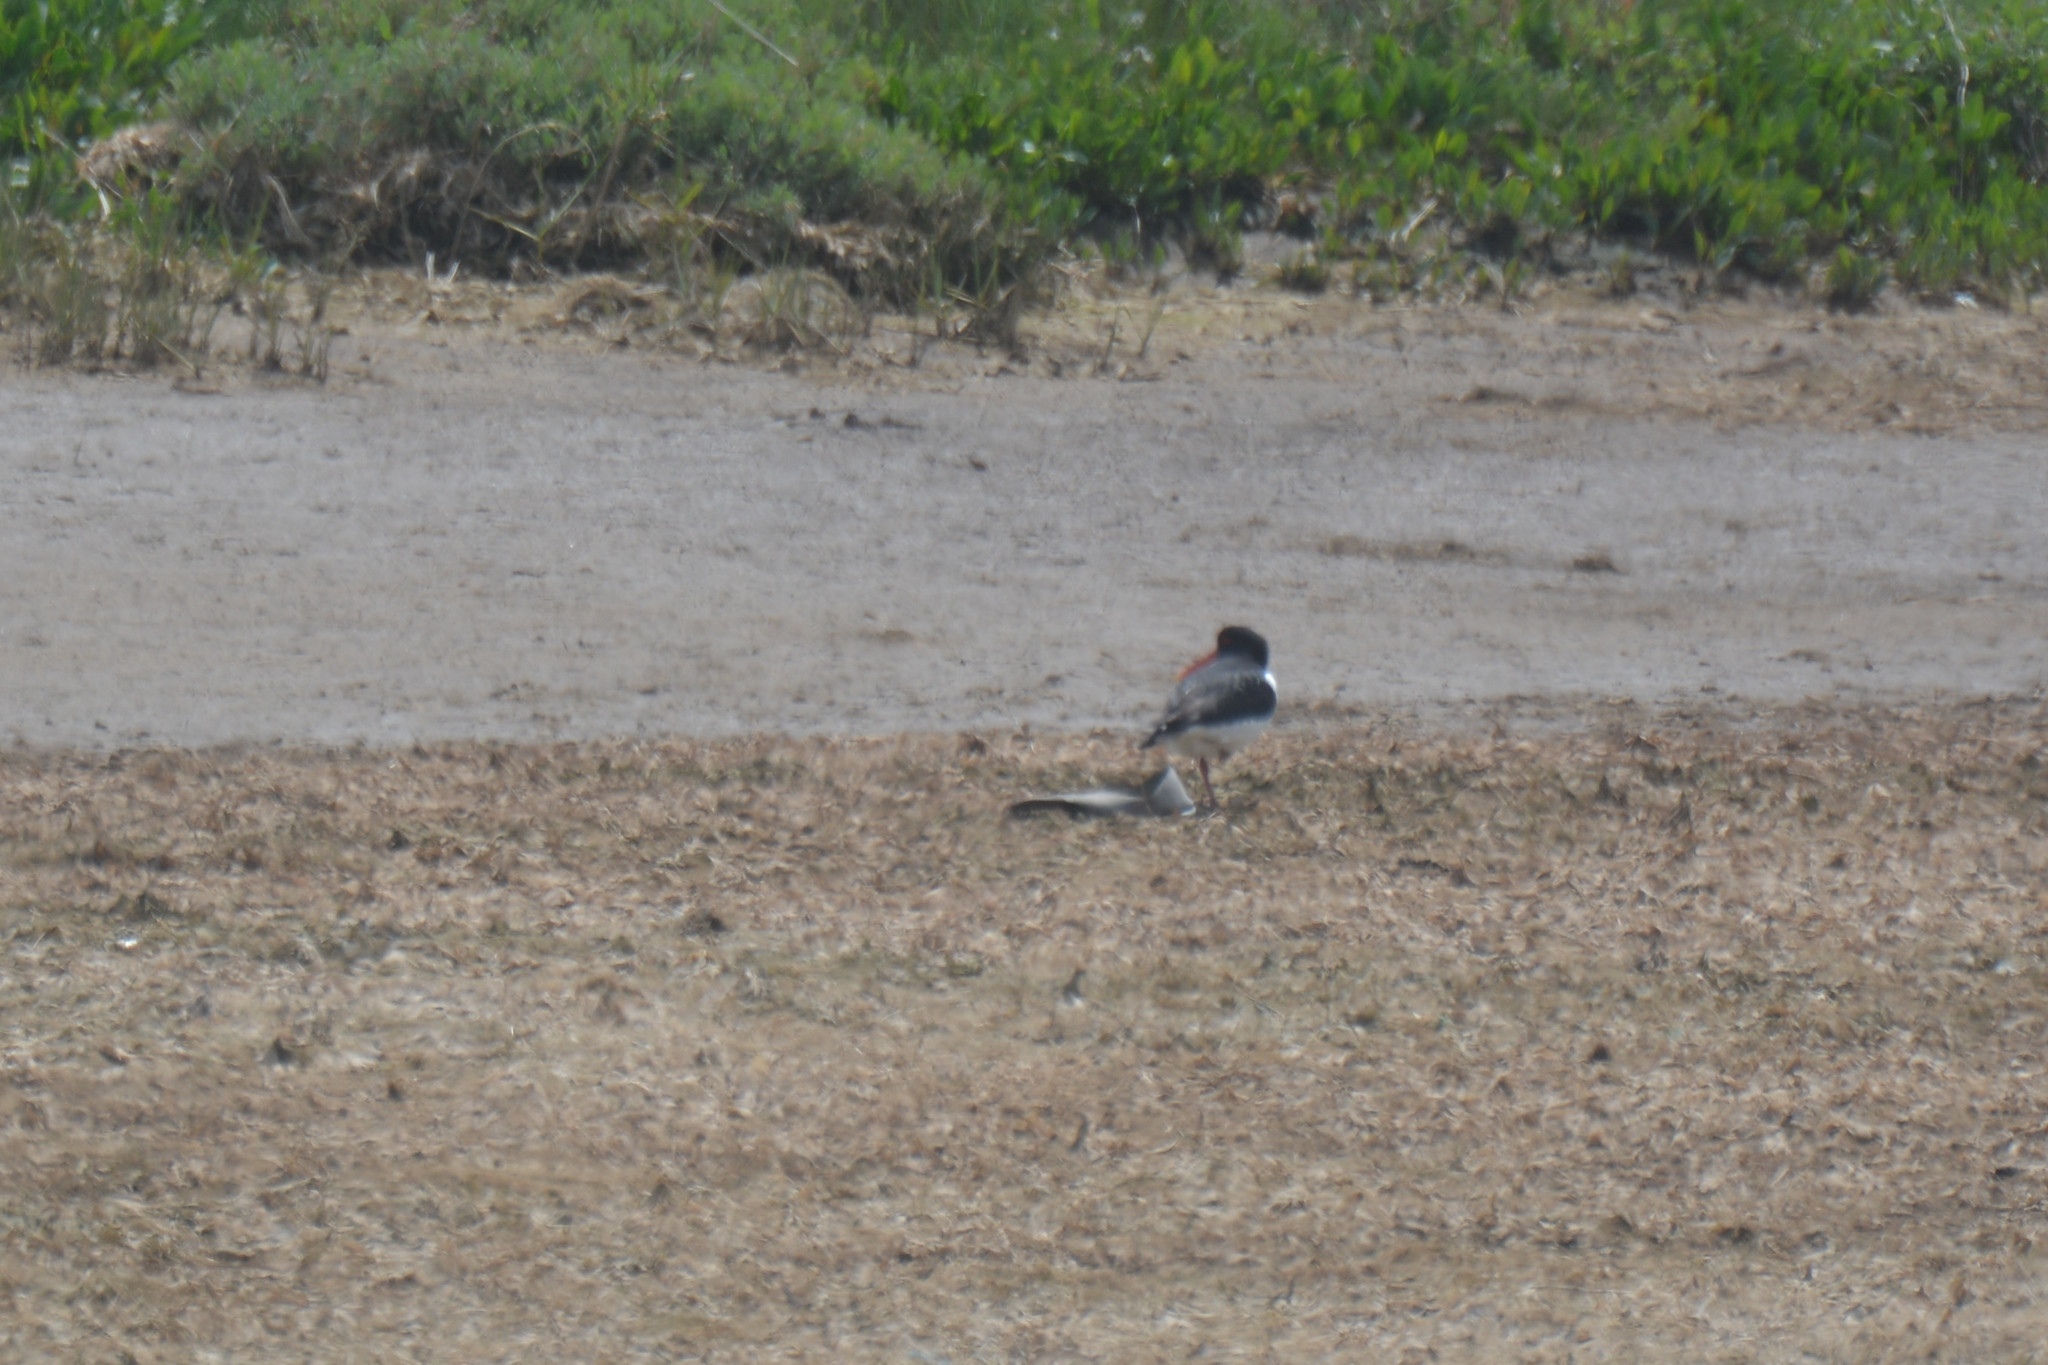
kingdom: Animalia
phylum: Chordata
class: Aves
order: Charadriiformes
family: Haematopodidae
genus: Haematopus
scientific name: Haematopus ostralegus
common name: Eurasian oystercatcher
